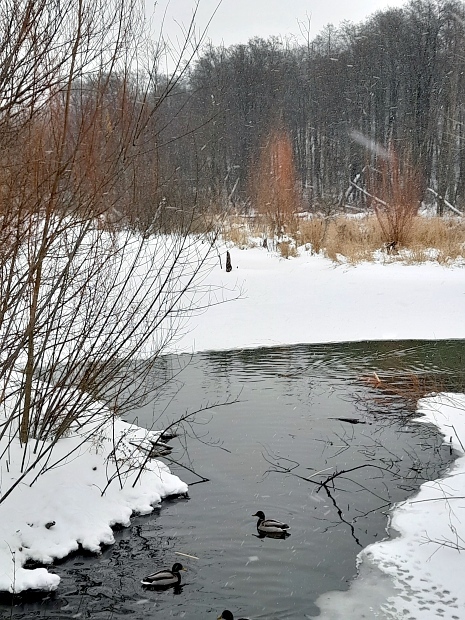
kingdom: Animalia
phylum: Chordata
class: Aves
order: Anseriformes
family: Anatidae
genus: Anas
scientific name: Anas platyrhynchos
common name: Mallard
